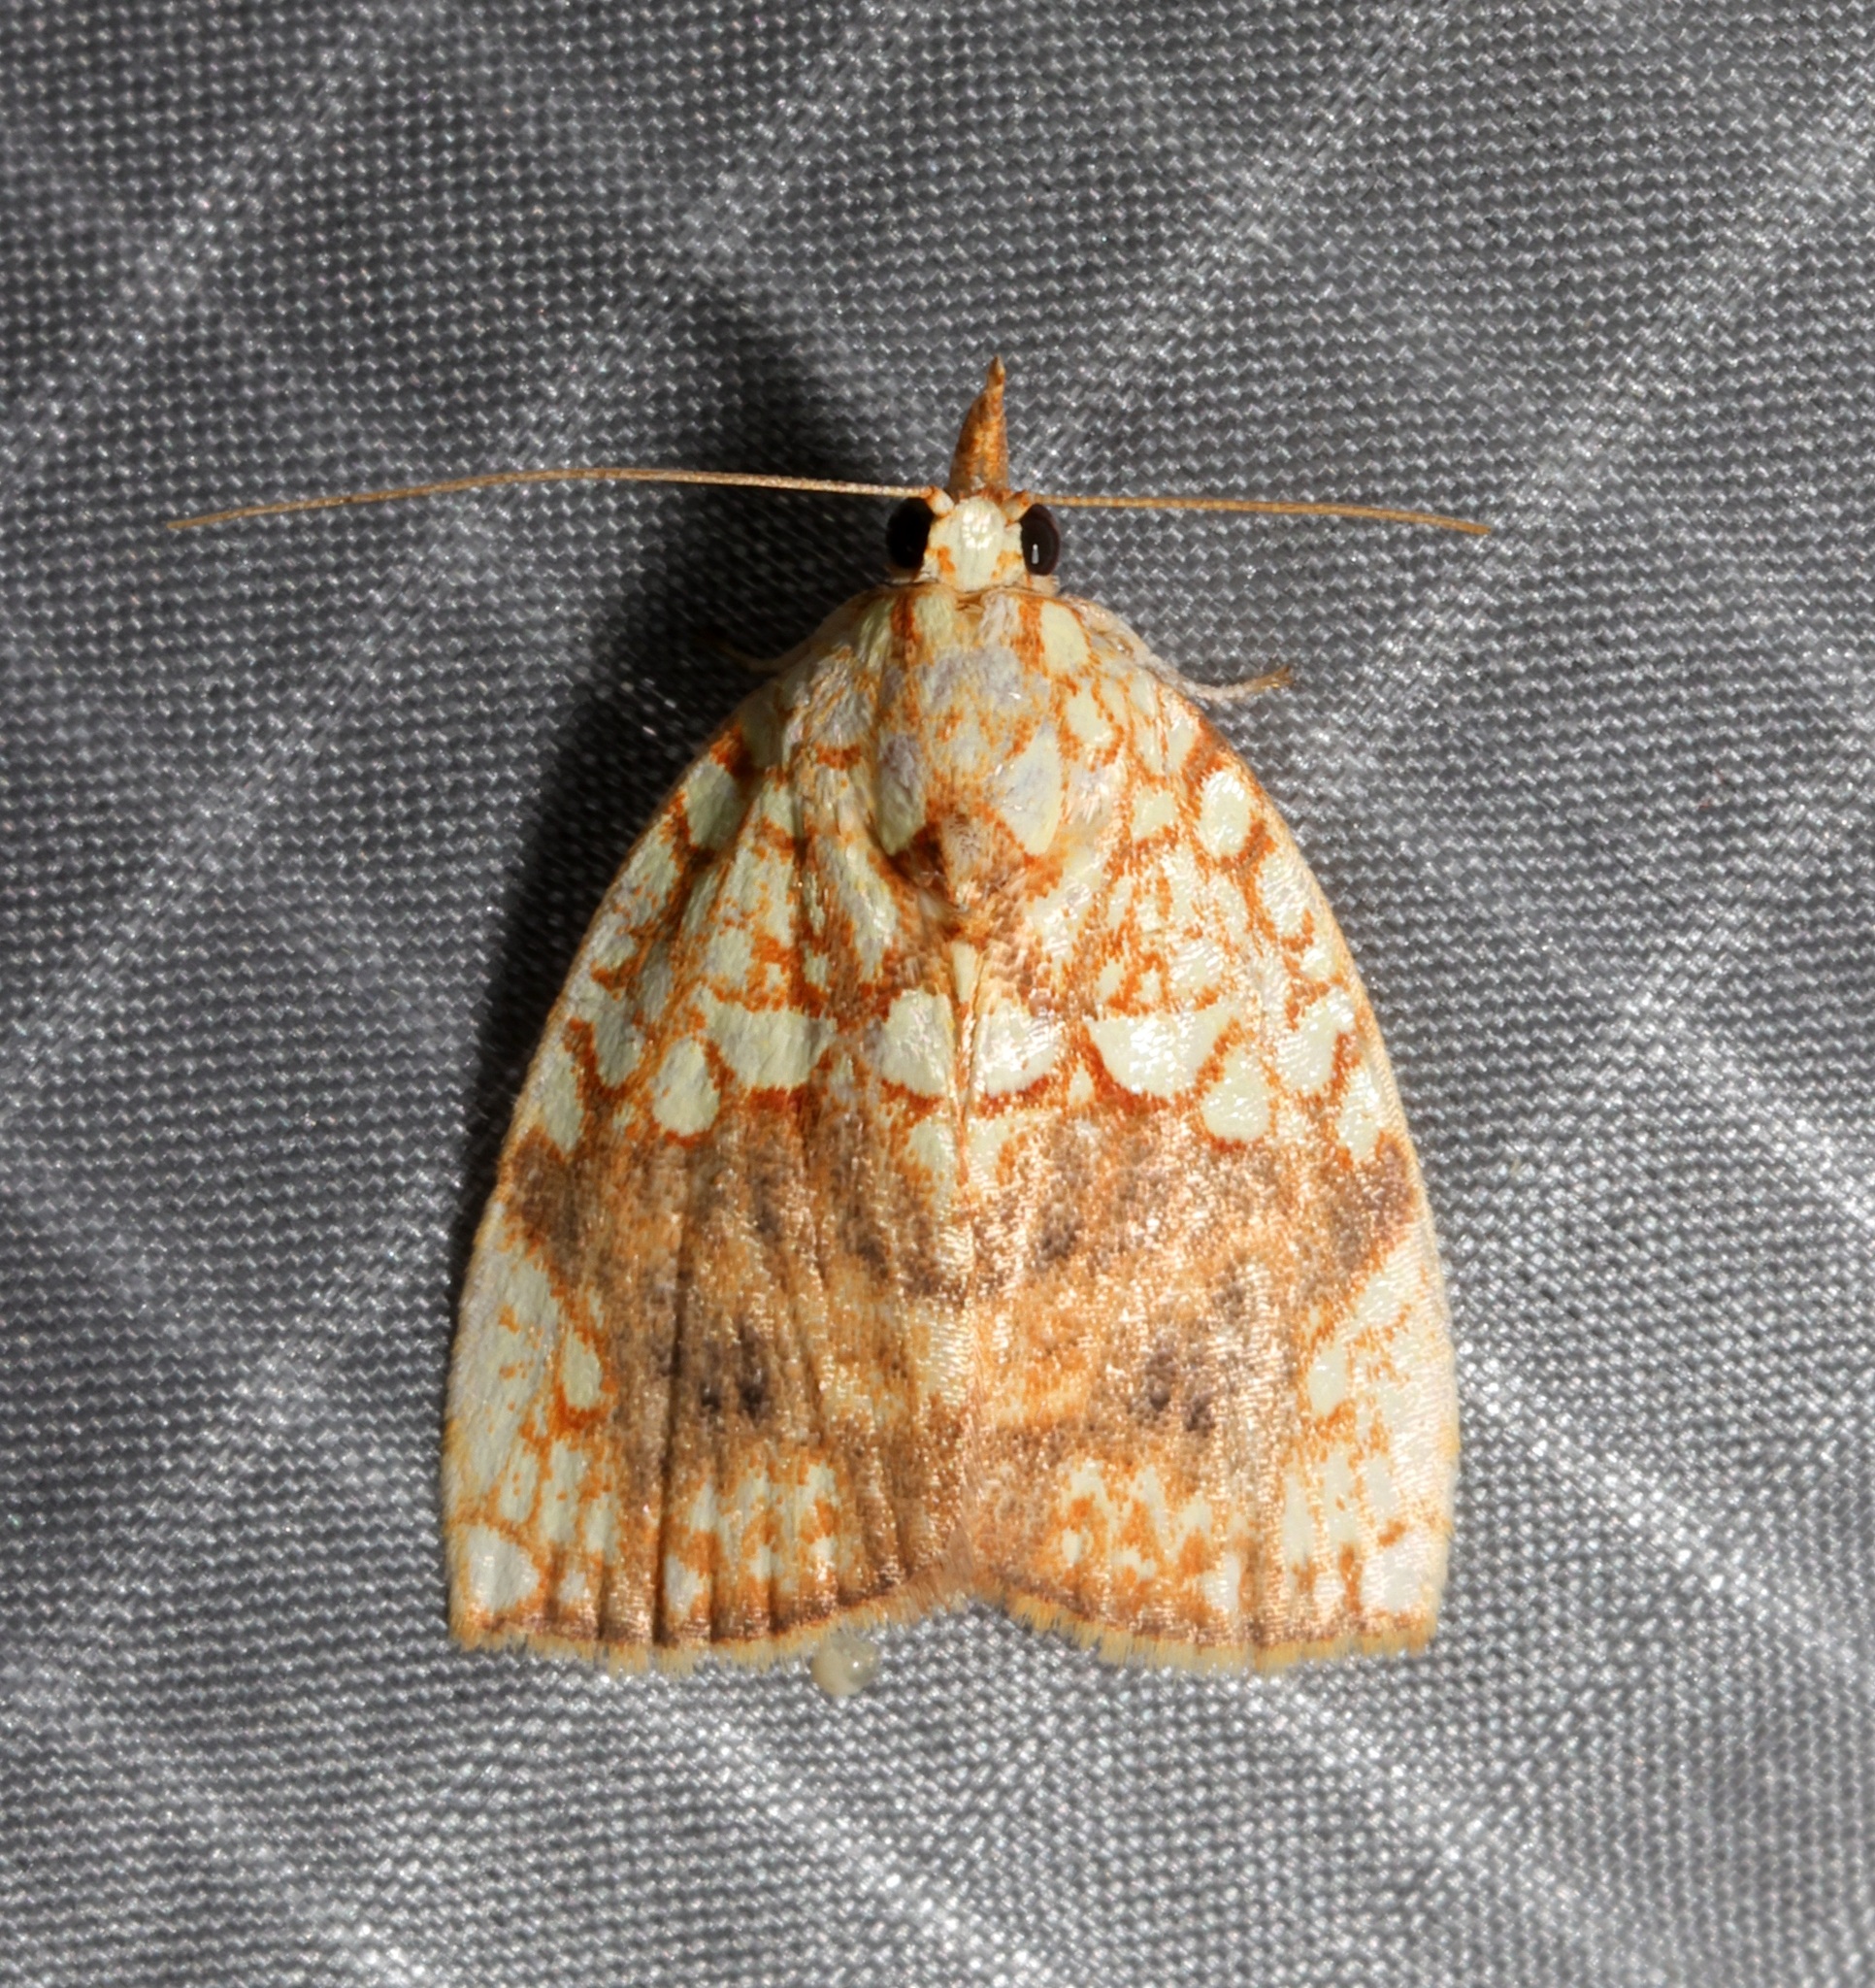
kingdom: Animalia
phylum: Arthropoda
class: Insecta
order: Lepidoptera
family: Nolidae
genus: Gabala
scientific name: Gabala argentata
